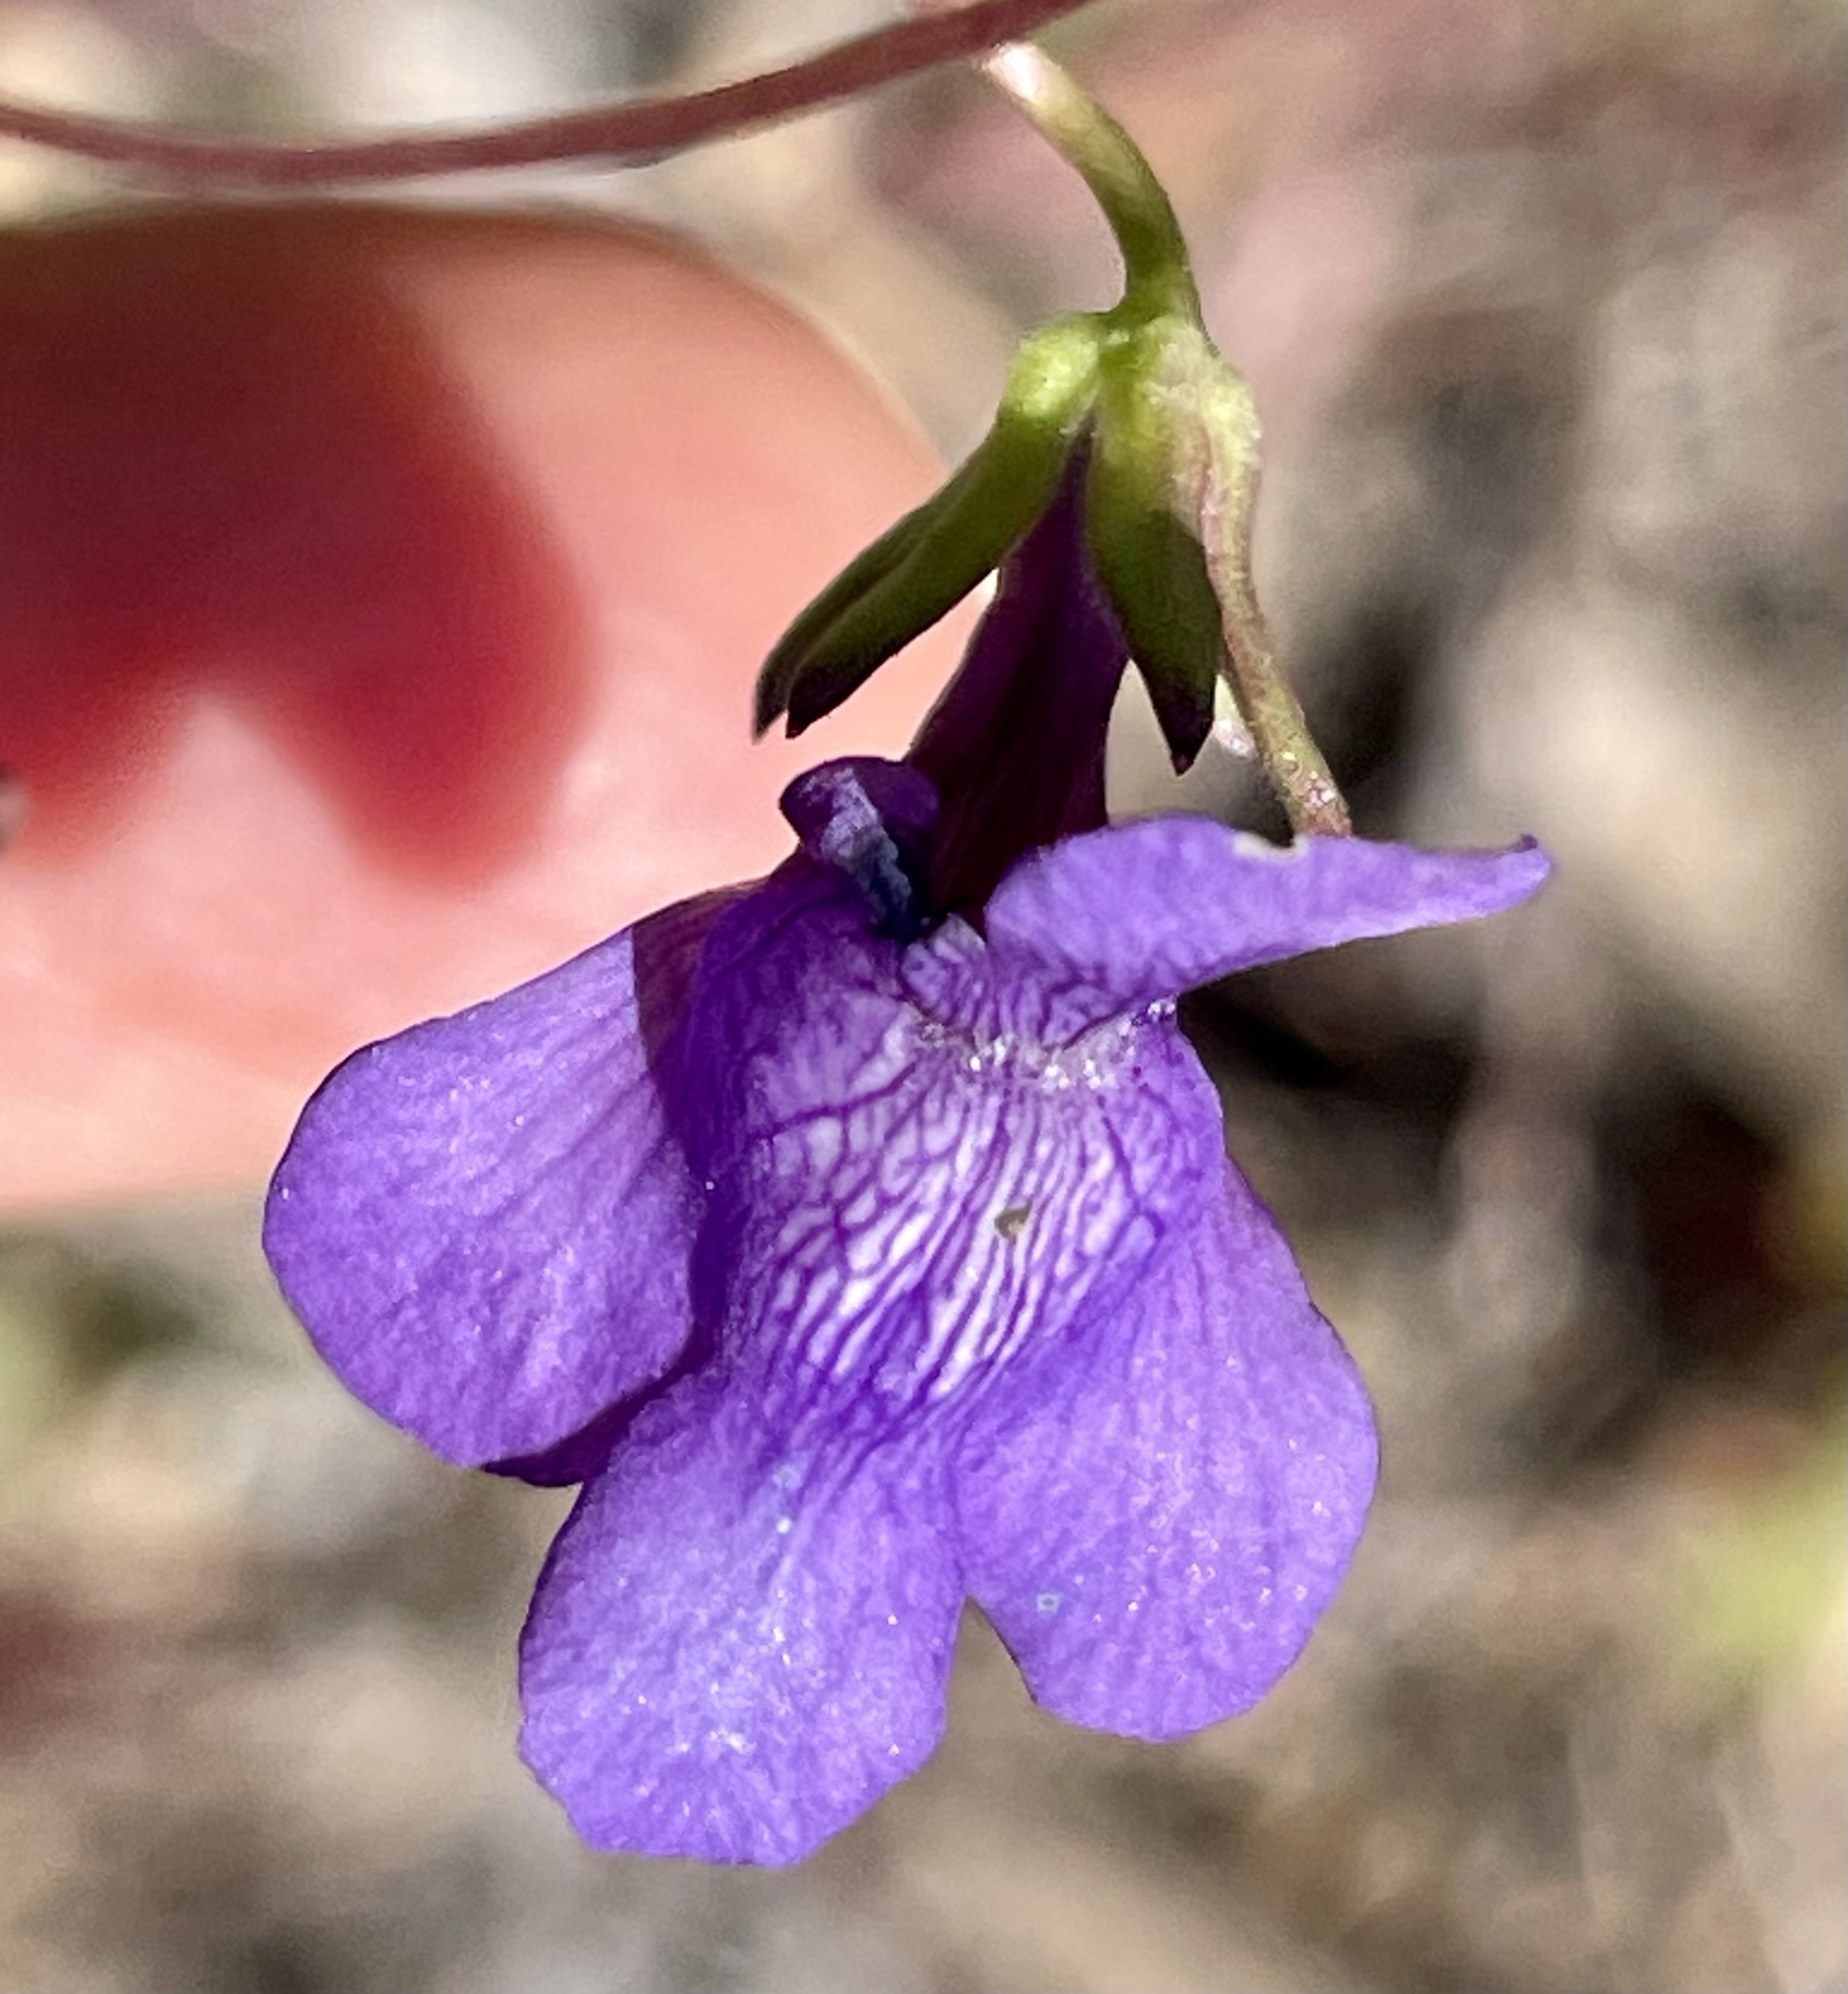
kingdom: Plantae
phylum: Tracheophyta
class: Magnoliopsida
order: Lamiales
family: Plantaginaceae
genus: Neogaerrhinum
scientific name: Neogaerrhinum strictum
